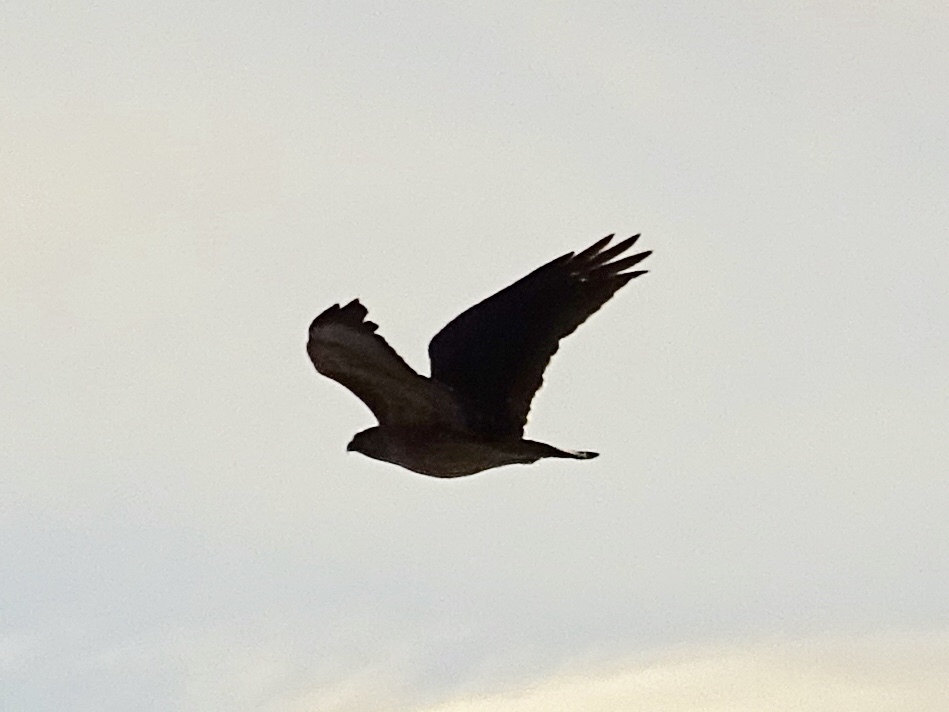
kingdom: Animalia
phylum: Chordata
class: Aves
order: Accipitriformes
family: Accipitridae
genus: Buteo
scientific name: Buteo jamaicensis
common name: Red-tailed hawk
